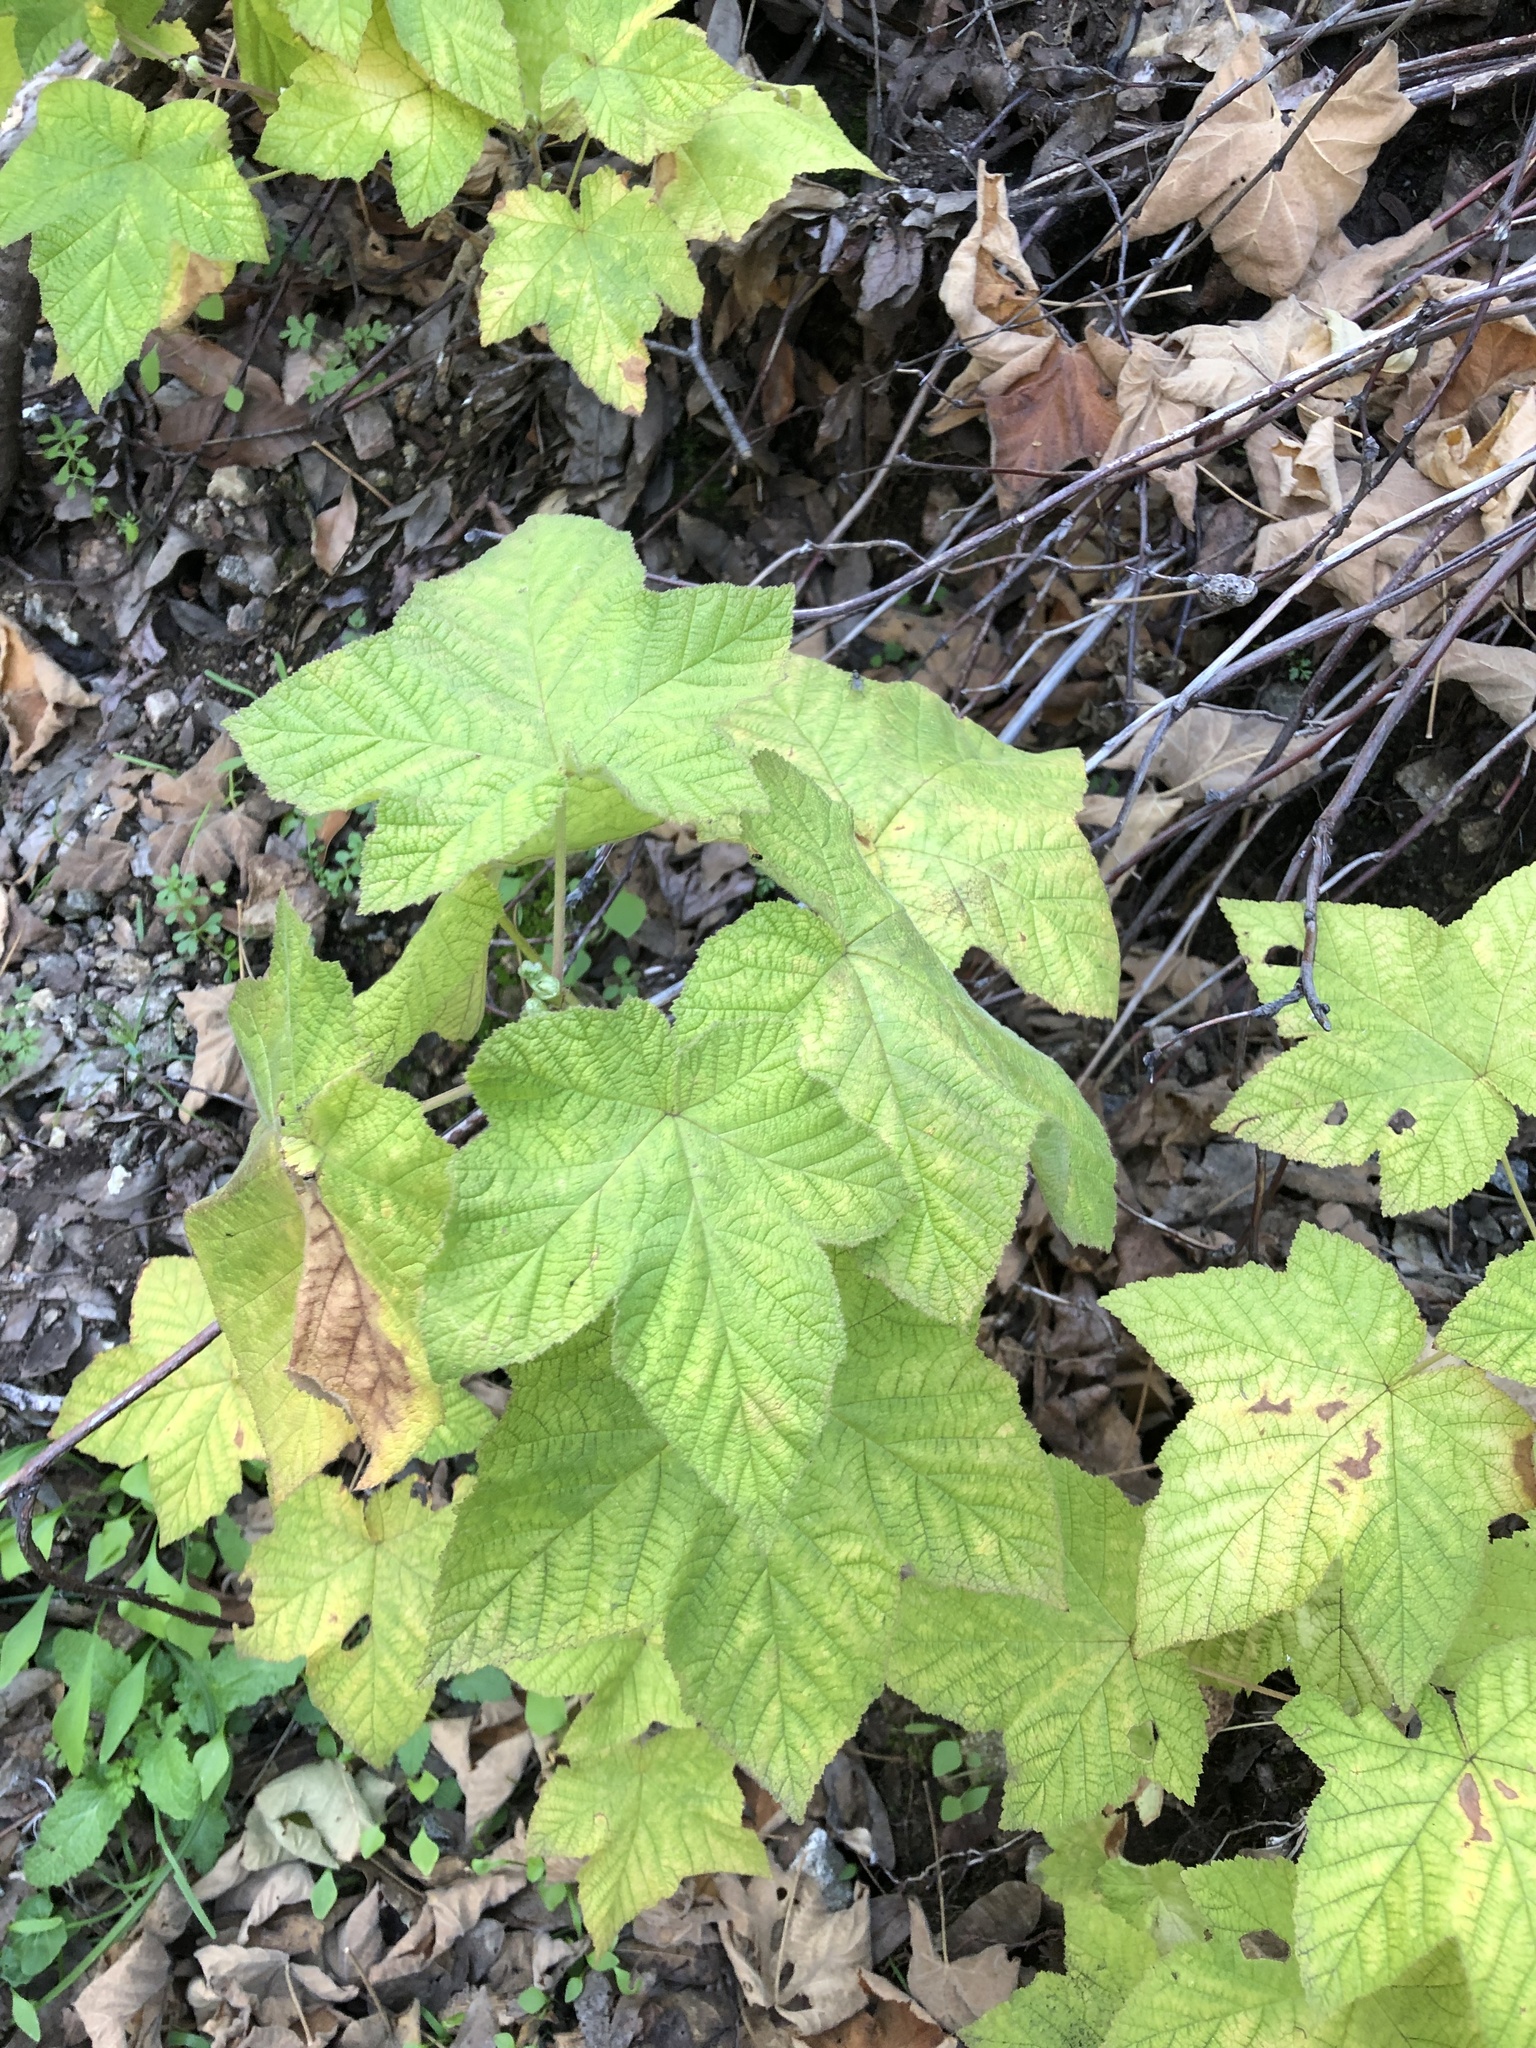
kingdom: Plantae
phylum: Tracheophyta
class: Magnoliopsida
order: Rosales
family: Rosaceae
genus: Rubus
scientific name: Rubus parviflorus
